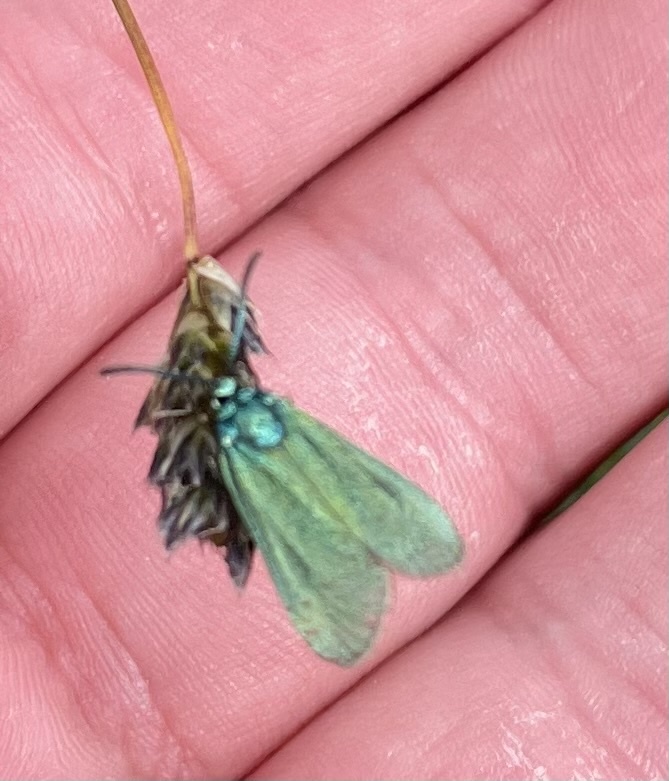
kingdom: Animalia
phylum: Arthropoda
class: Insecta
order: Lepidoptera
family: Zygaenidae
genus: Adscita
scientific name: Adscita statices
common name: Forester
